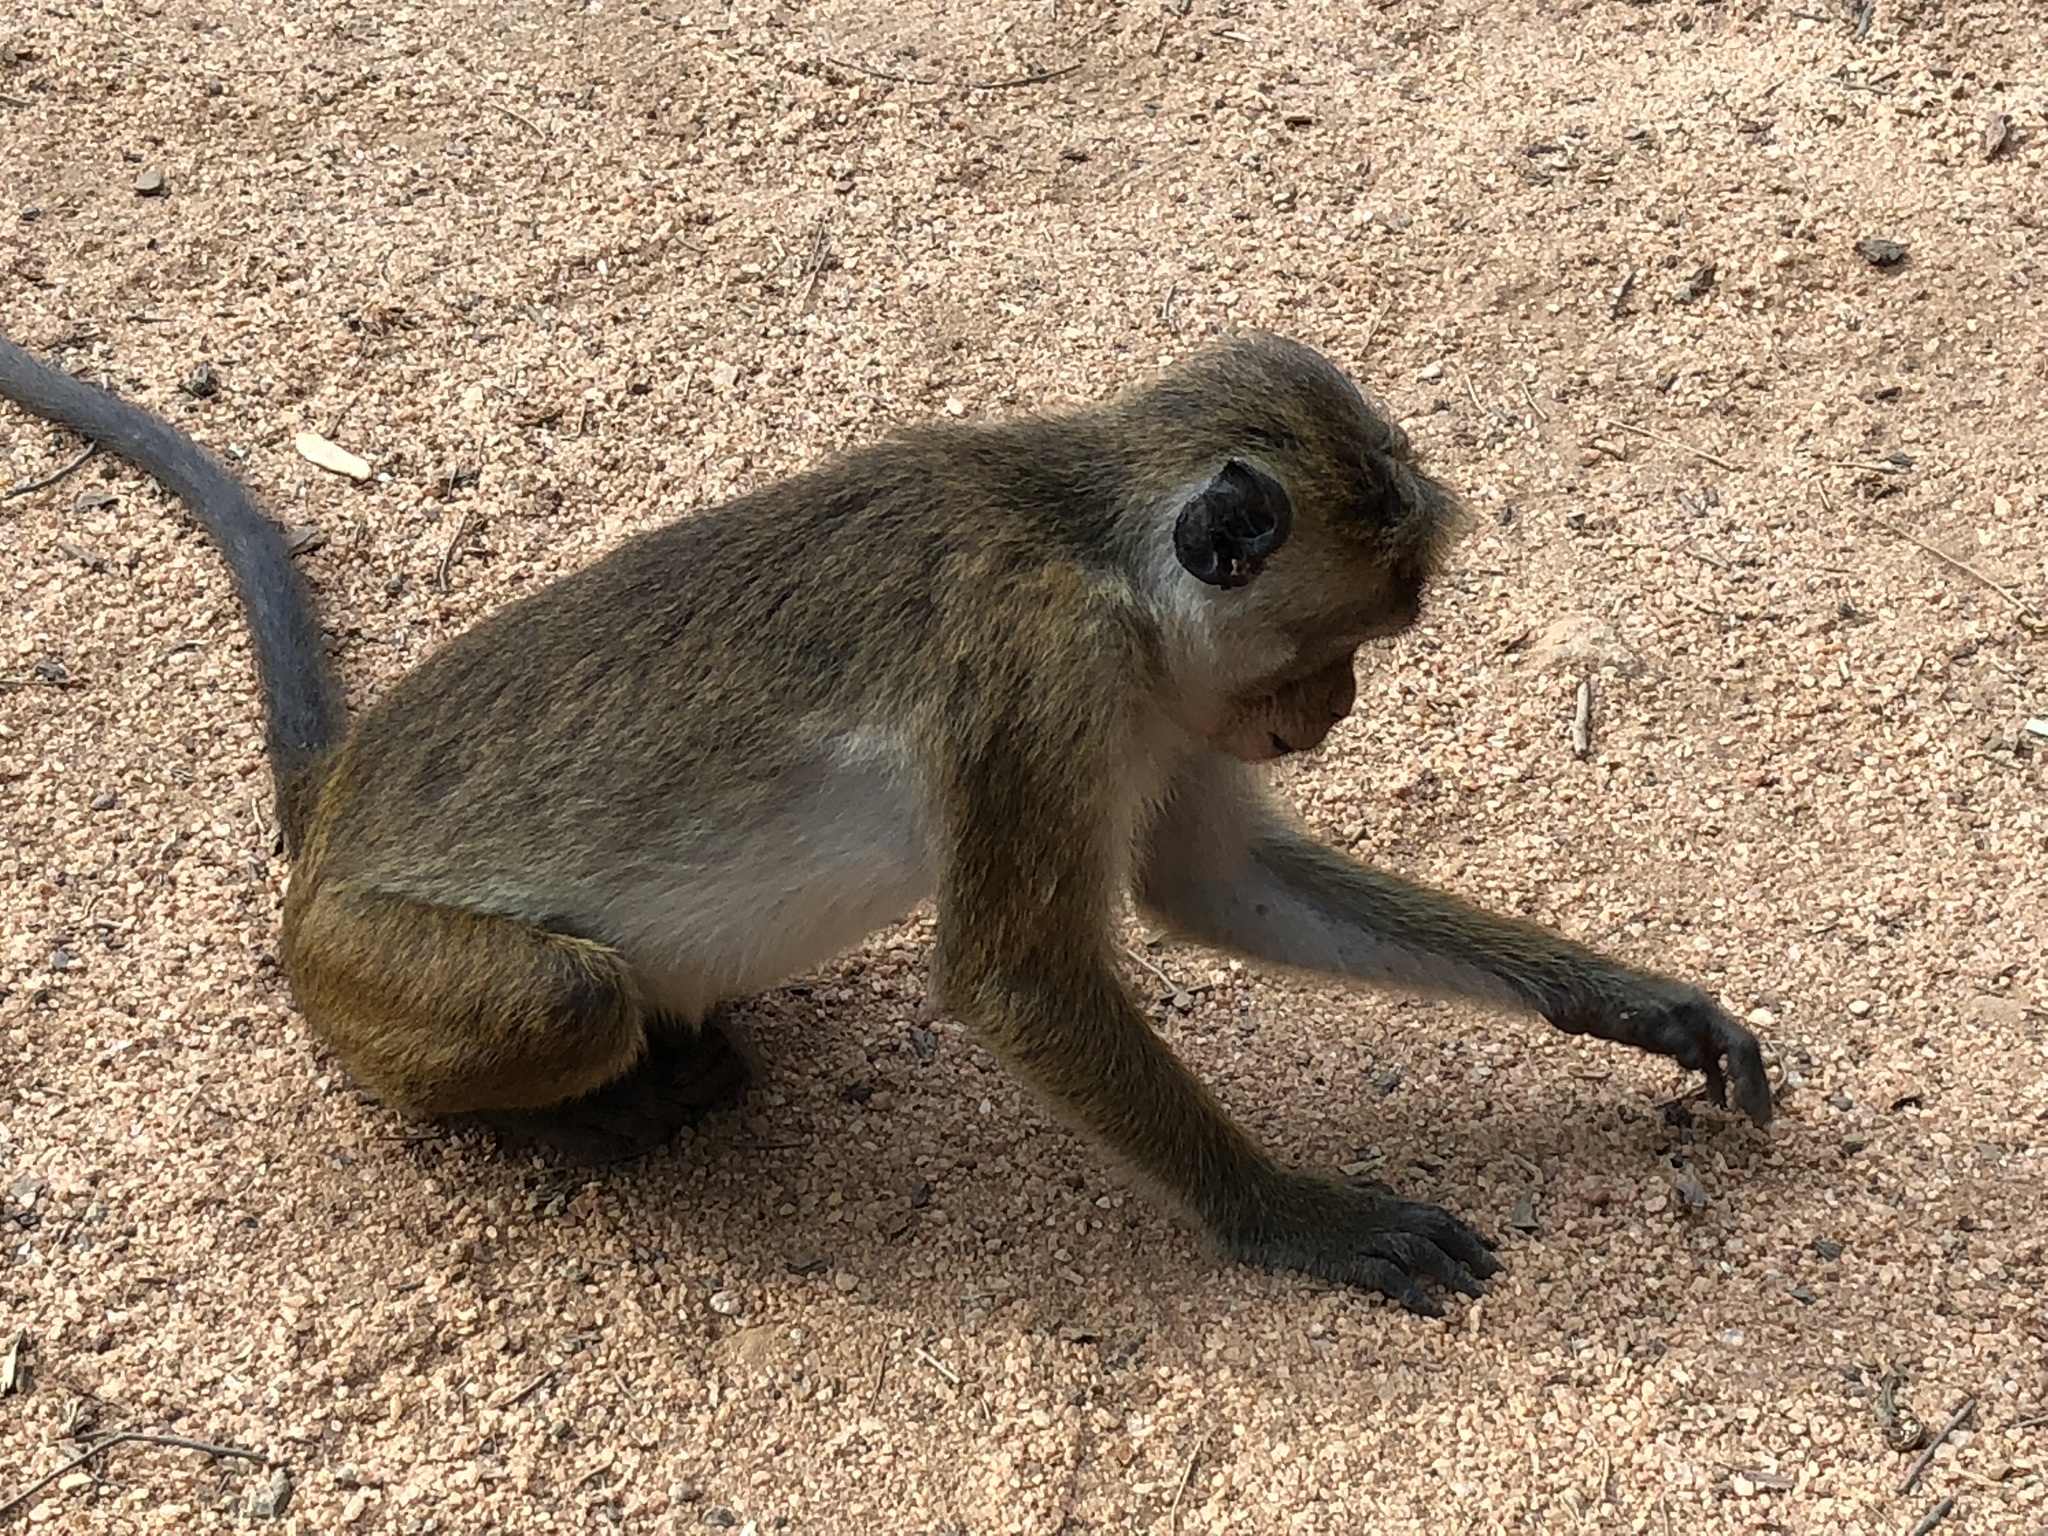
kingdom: Animalia
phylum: Chordata
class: Mammalia
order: Primates
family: Cercopithecidae
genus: Macaca
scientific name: Macaca sinica
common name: Toque macaque
